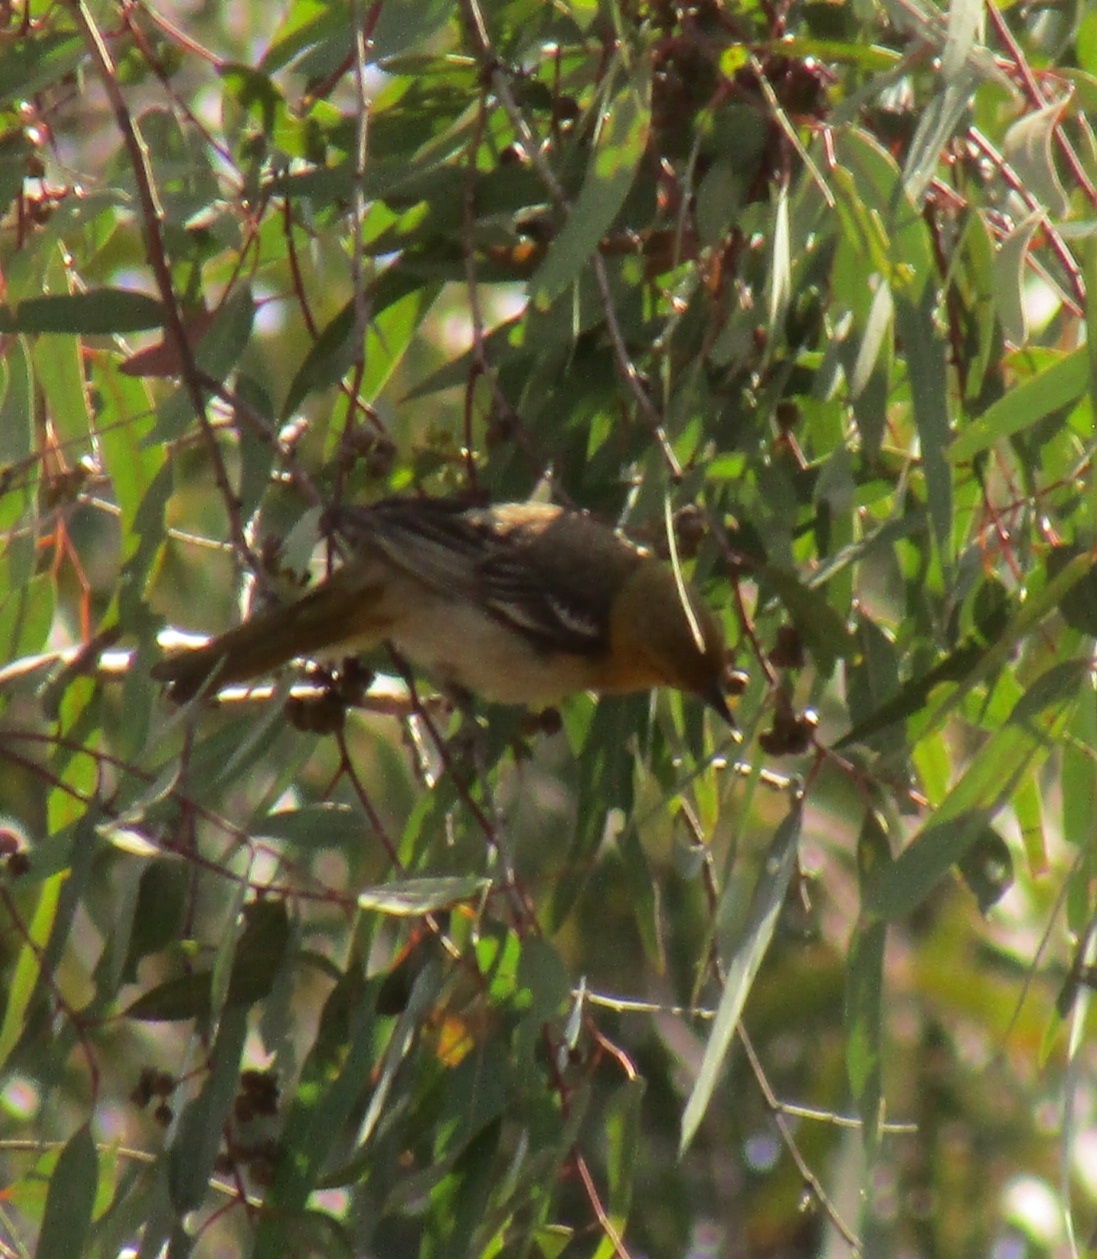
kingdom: Animalia
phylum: Chordata
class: Aves
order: Passeriformes
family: Icteridae
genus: Icterus
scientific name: Icterus bullockii
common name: Bullock's oriole
